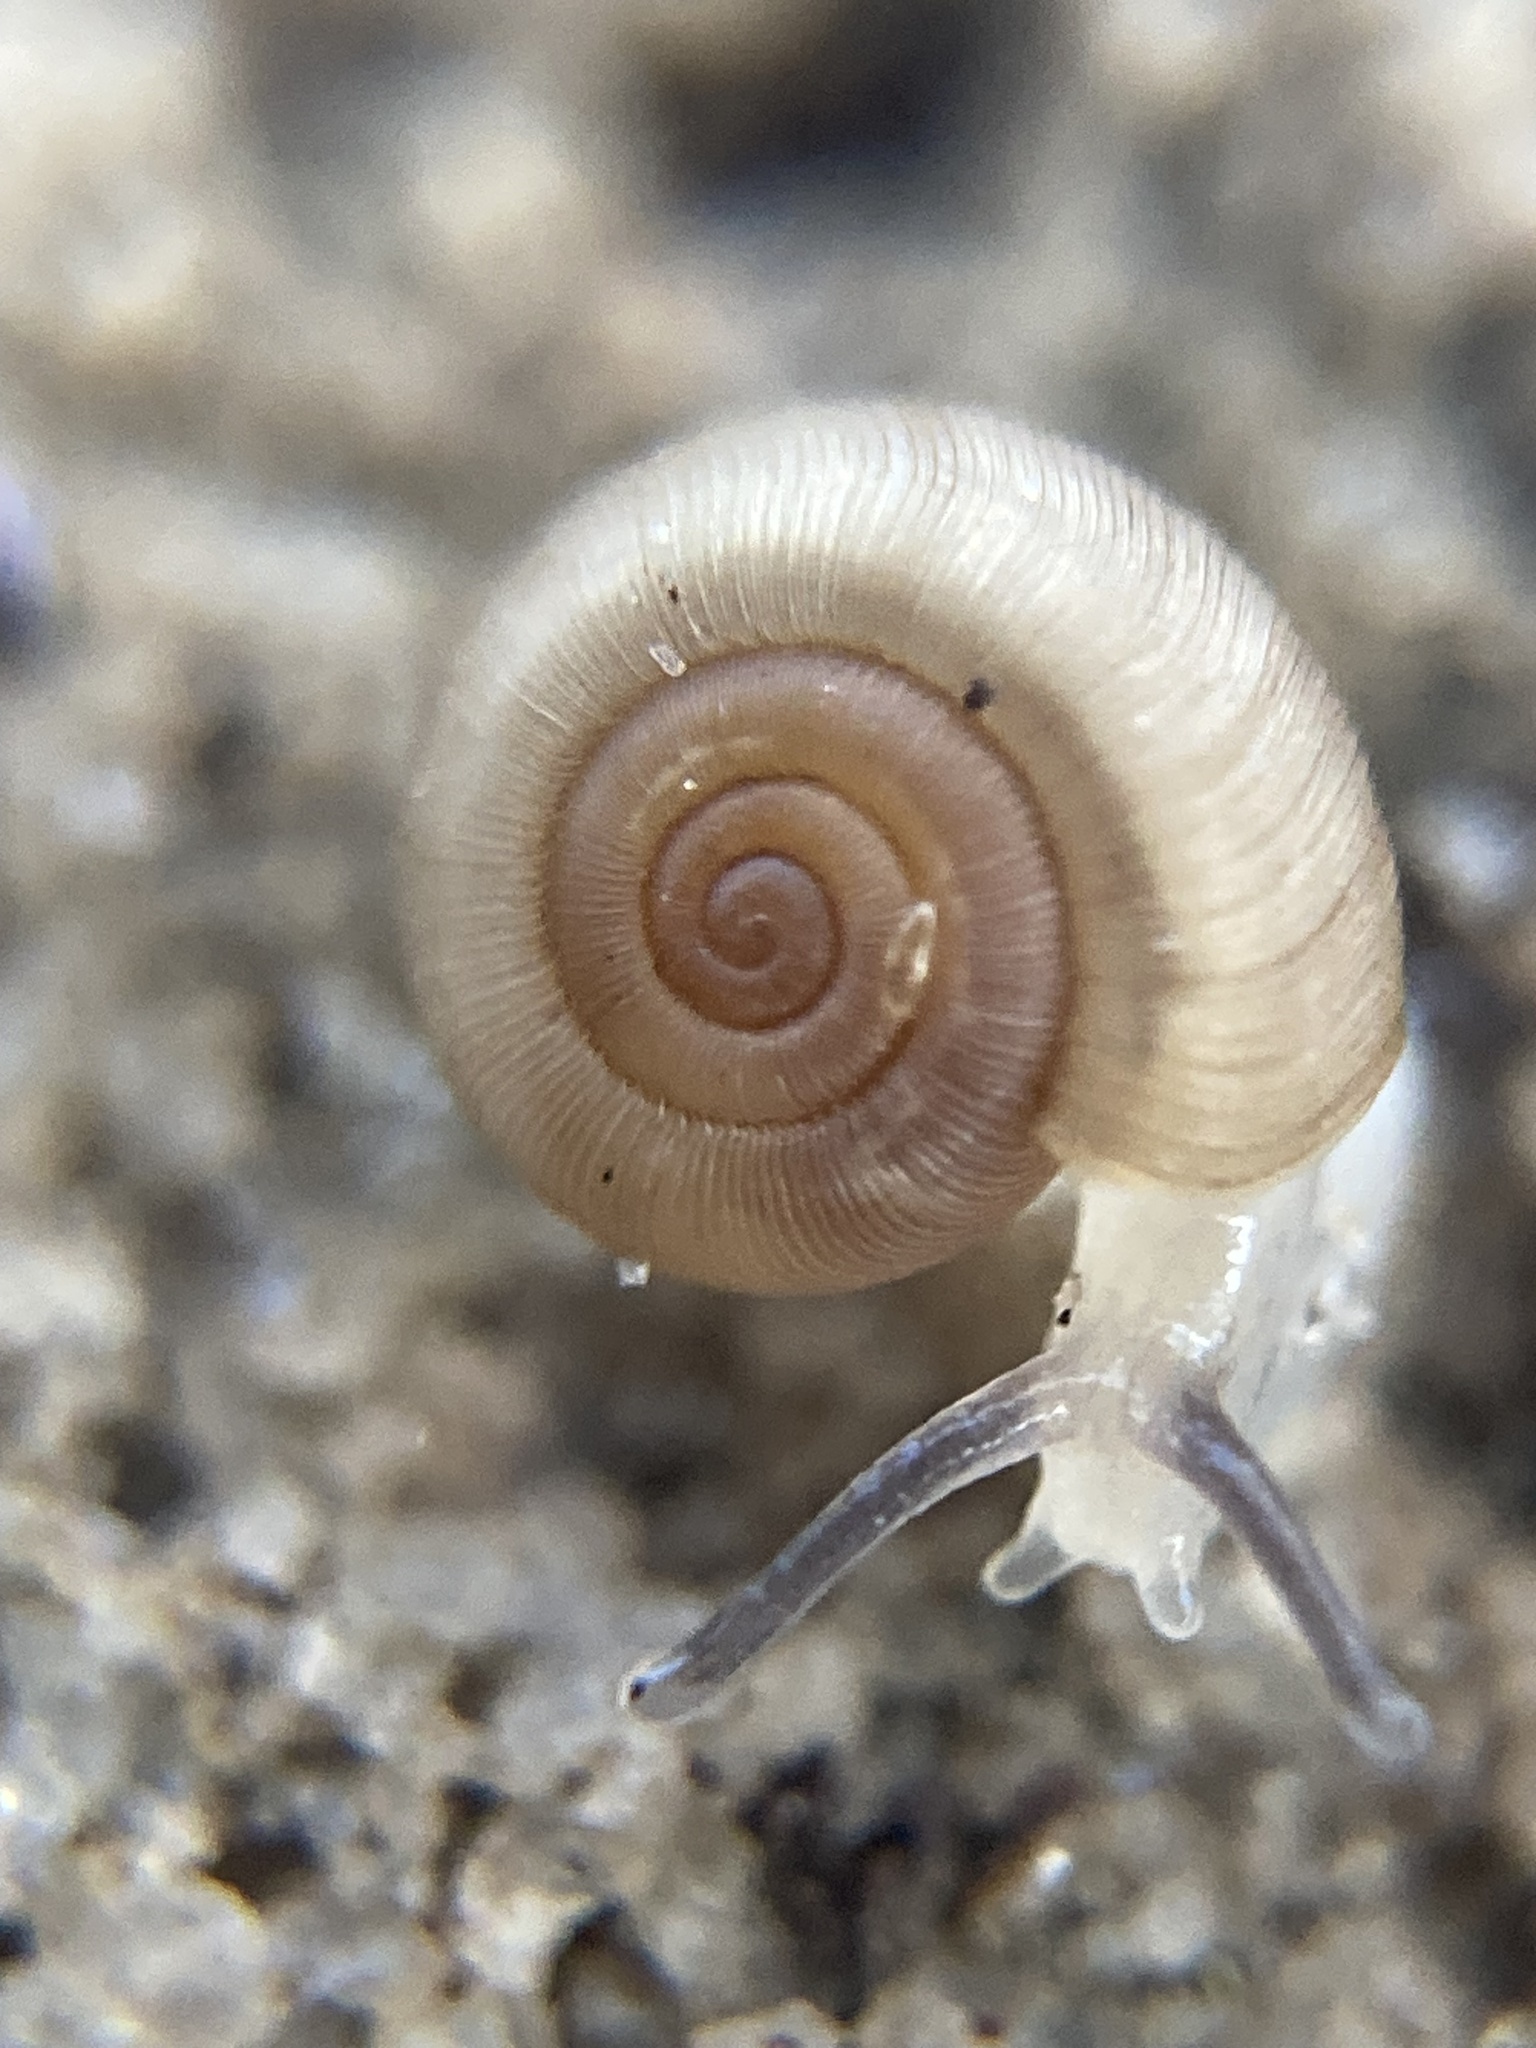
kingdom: Animalia
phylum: Mollusca
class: Gastropoda
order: Stylommatophora
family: Charopidae
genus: Elsothera
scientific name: Elsothera sericatula
